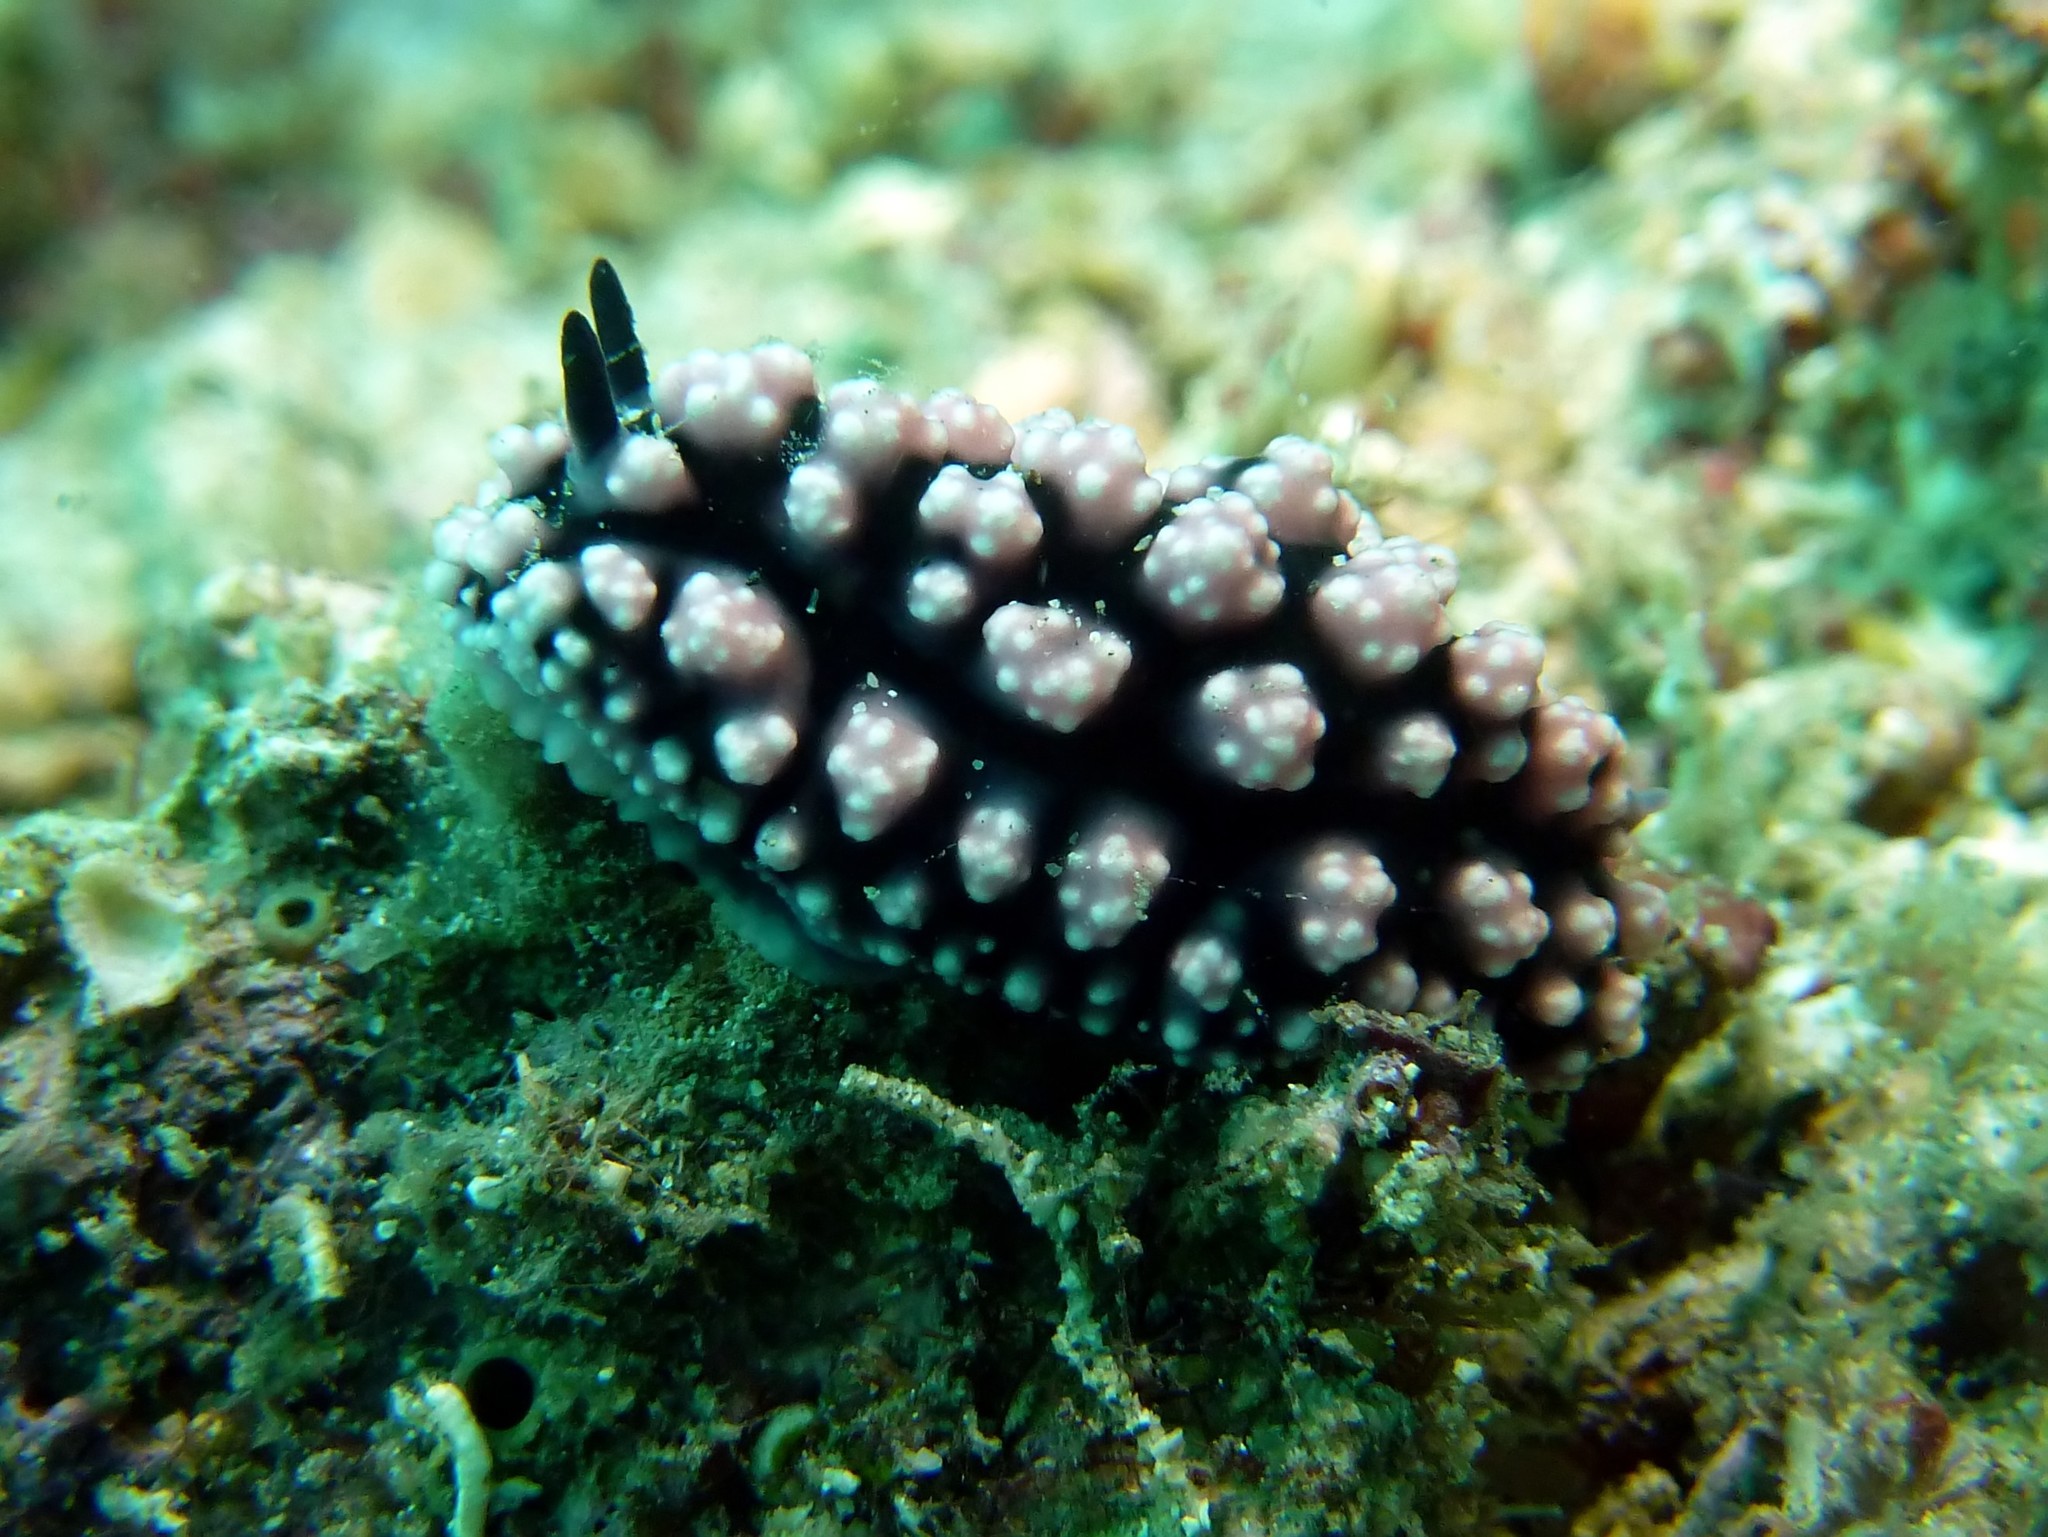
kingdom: Animalia
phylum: Mollusca
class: Gastropoda
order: Nudibranchia
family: Phyllidiidae
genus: Phyllidiella
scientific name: Phyllidiella pustulosa
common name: Pustular phyllidia
